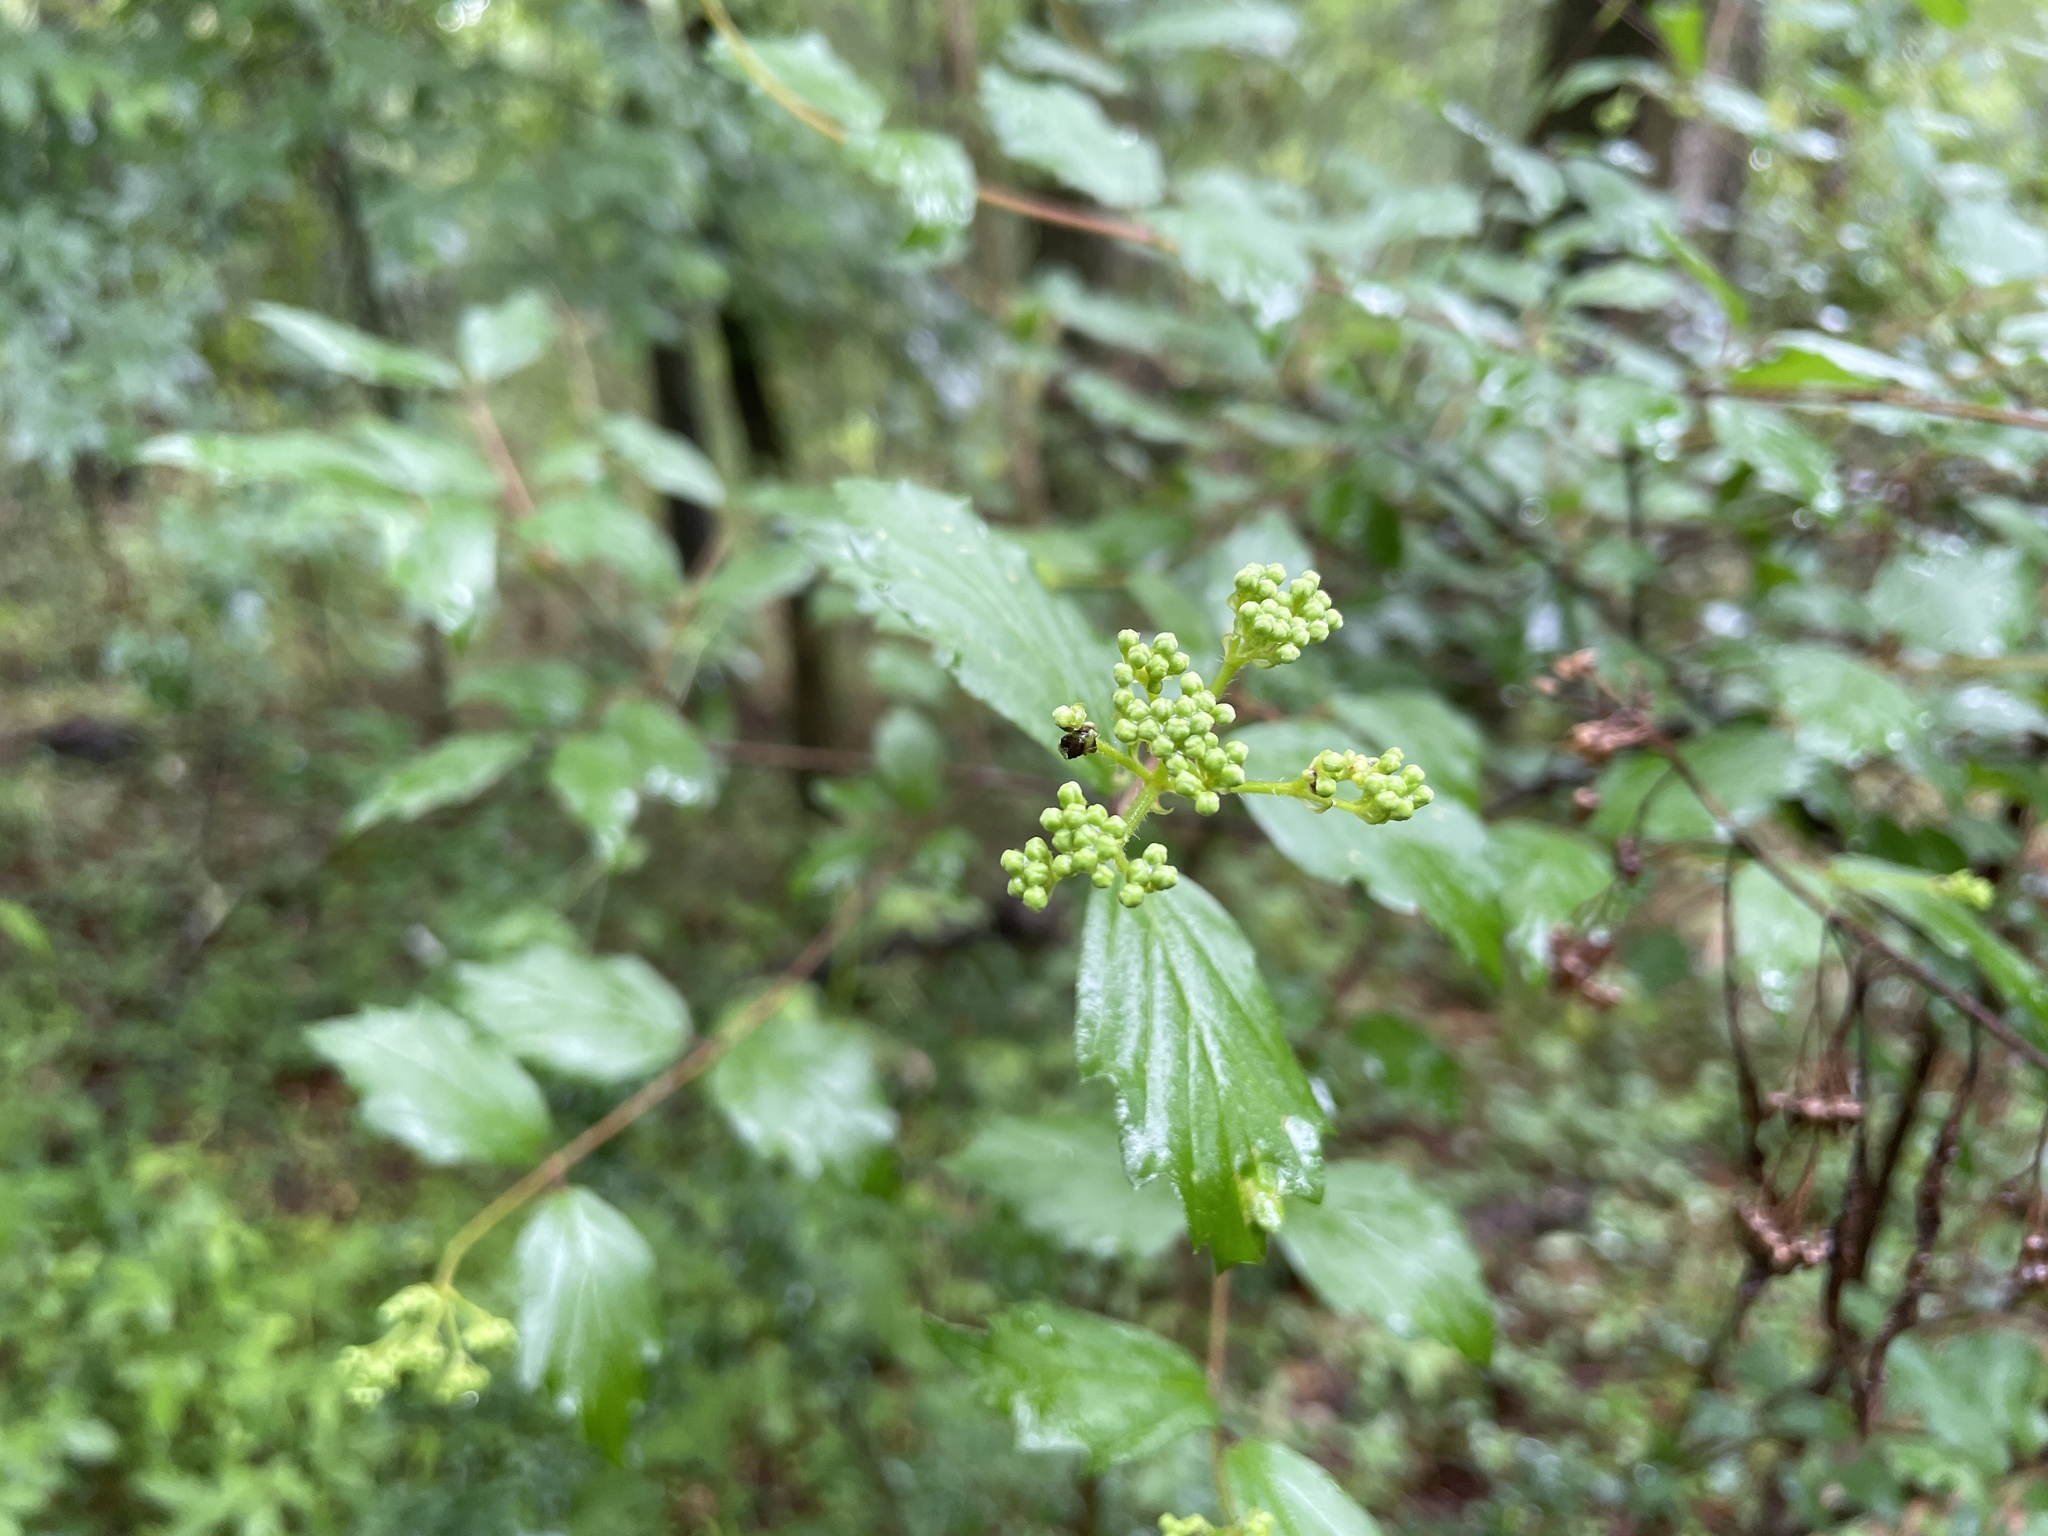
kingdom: Plantae
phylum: Tracheophyta
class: Magnoliopsida
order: Dipsacales
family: Viburnaceae
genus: Viburnum
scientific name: Viburnum scabrellum
